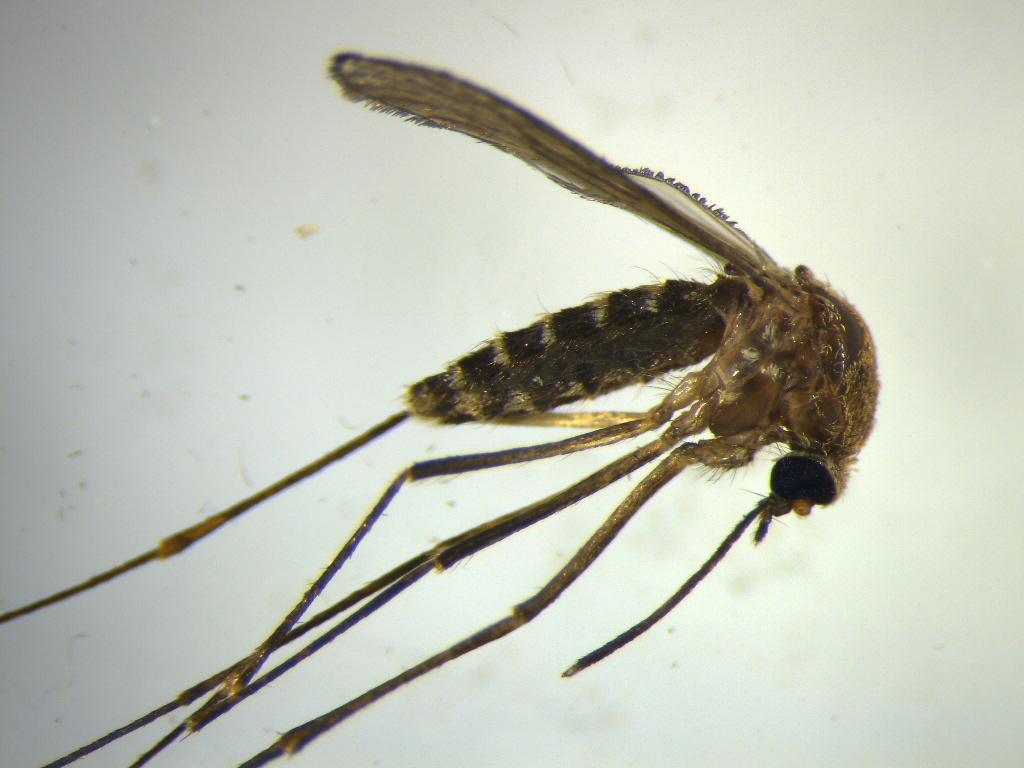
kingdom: Animalia
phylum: Arthropoda
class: Insecta
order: Diptera
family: Culicidae
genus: Culex
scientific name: Culex pervigilans
